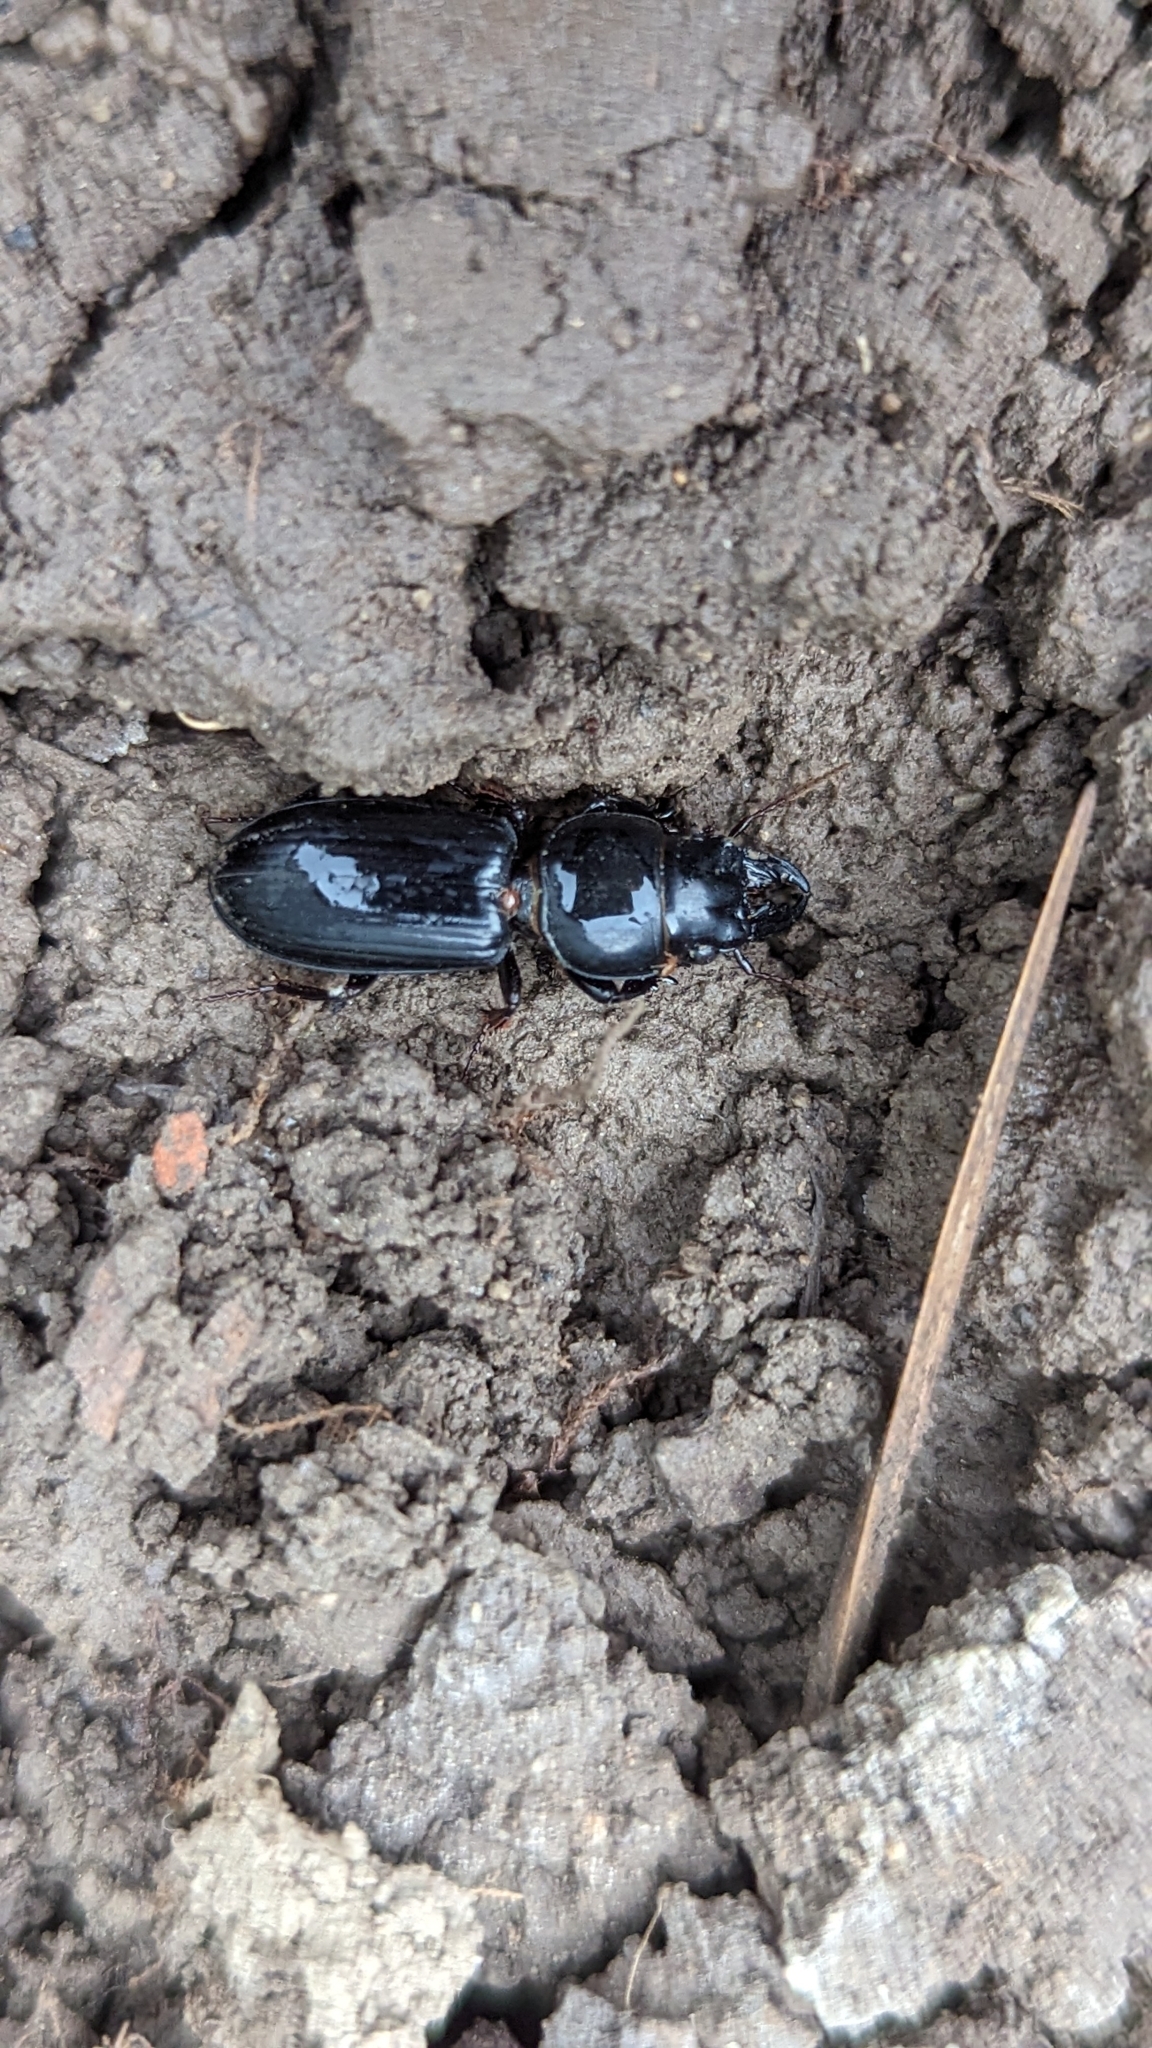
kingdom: Animalia
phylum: Arthropoda
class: Insecta
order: Coleoptera
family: Carabidae
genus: Scarites
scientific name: Scarites subterraneus
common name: Big-headed ground beetle
